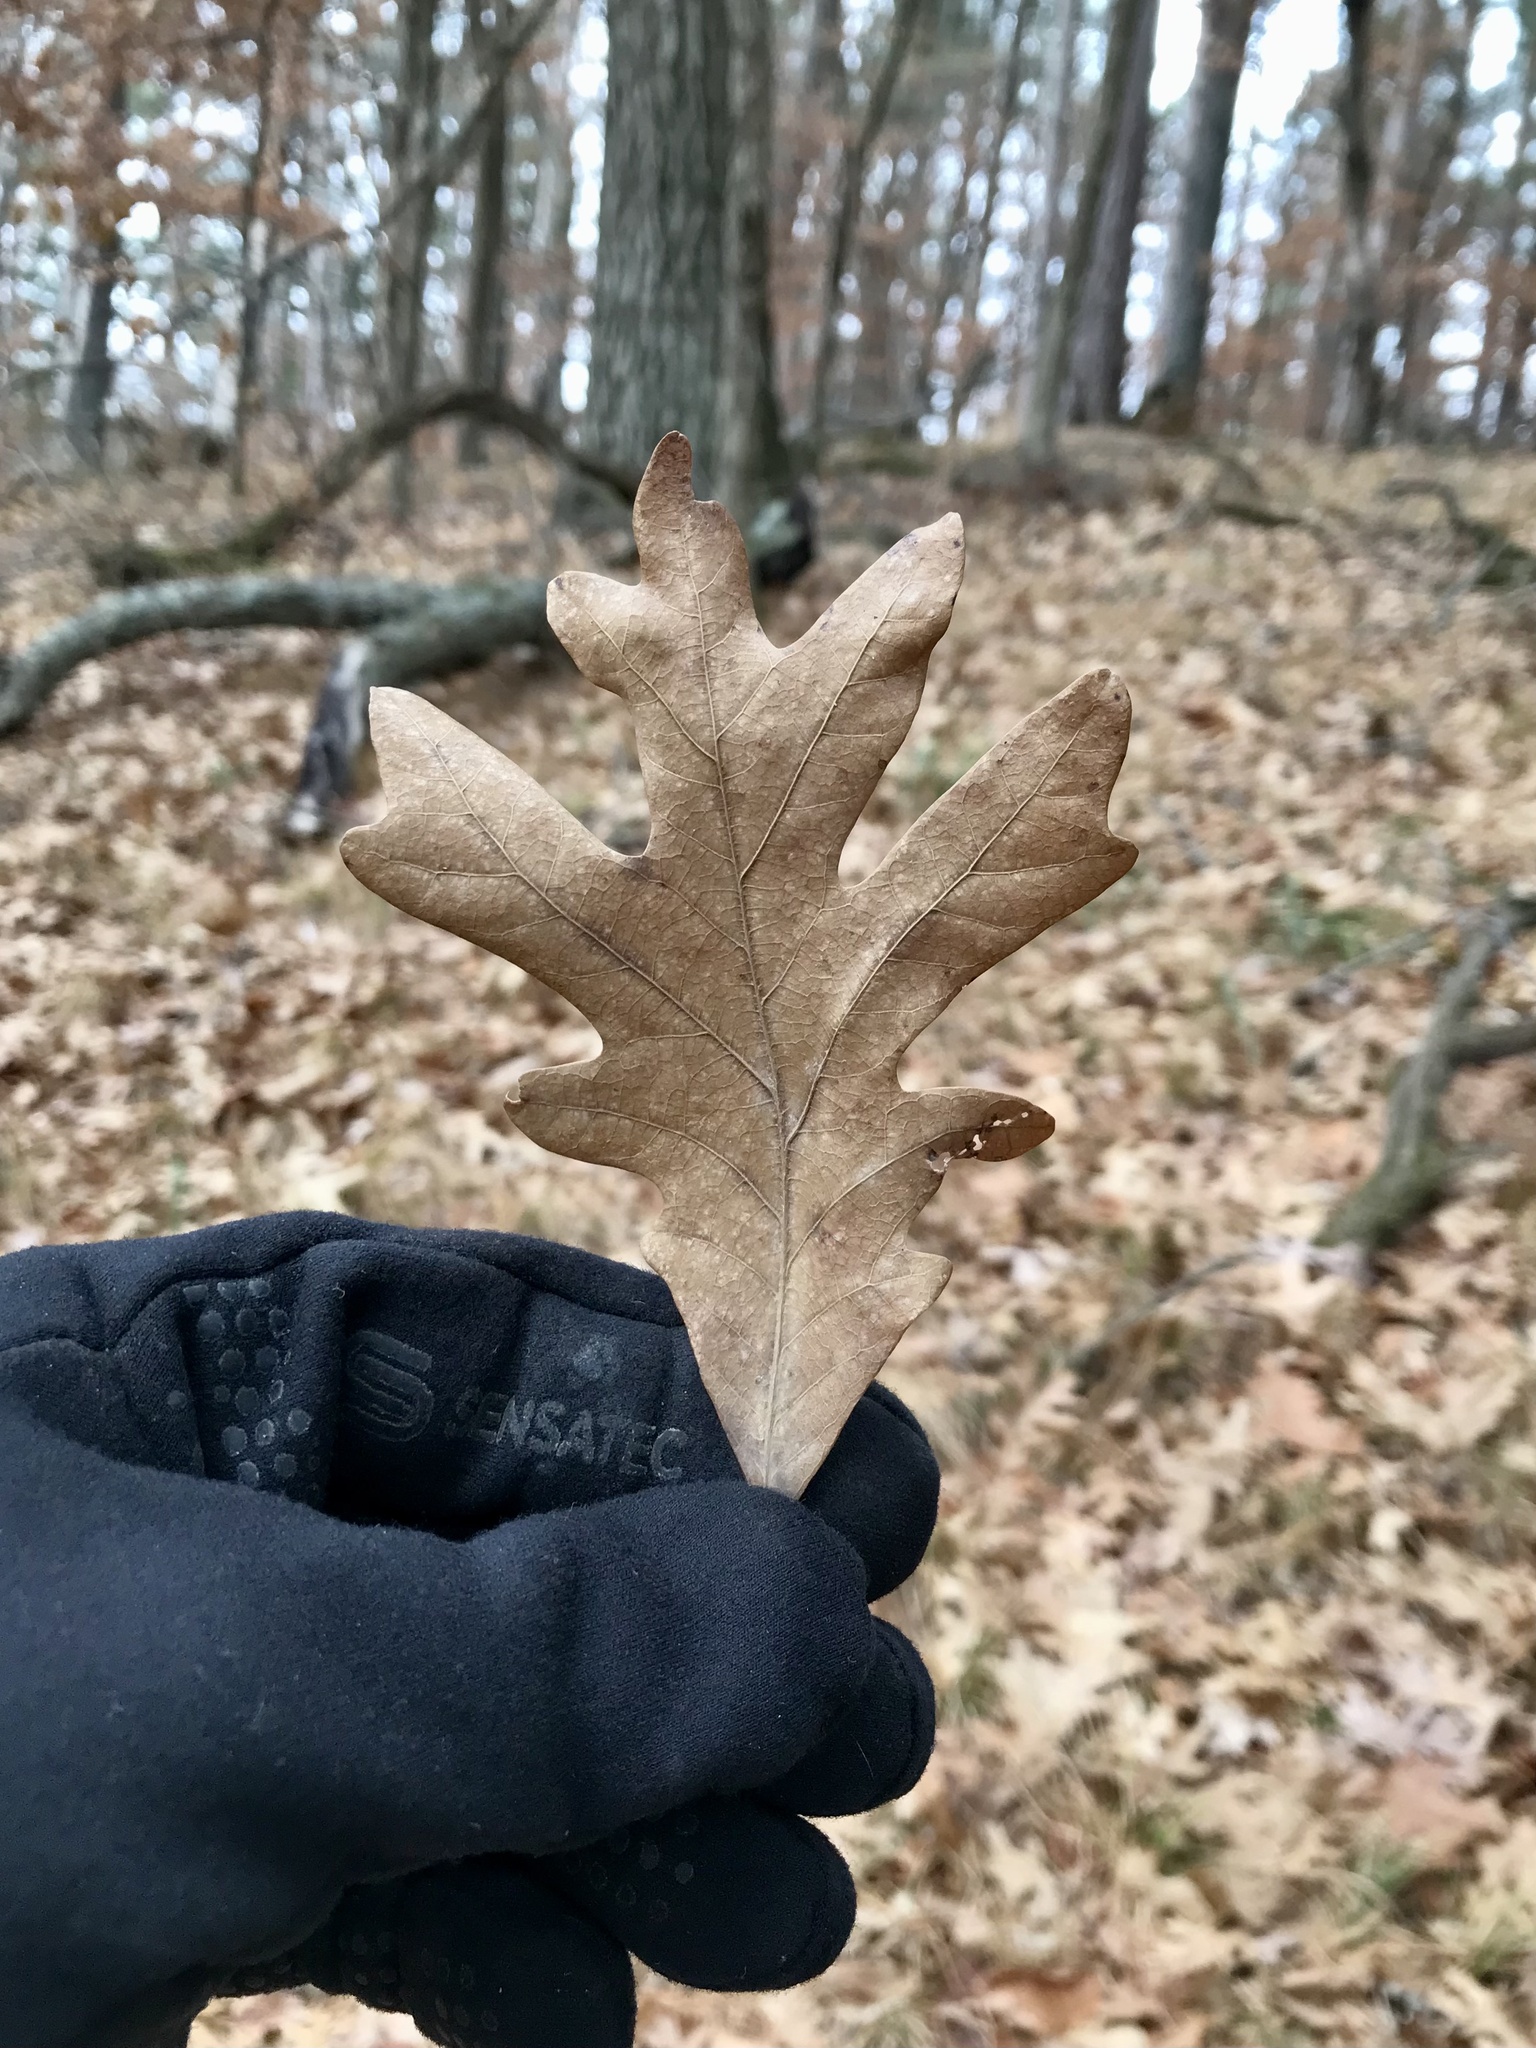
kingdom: Plantae
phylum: Tracheophyta
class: Magnoliopsida
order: Fagales
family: Fagaceae
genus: Quercus
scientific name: Quercus alba
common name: White oak
